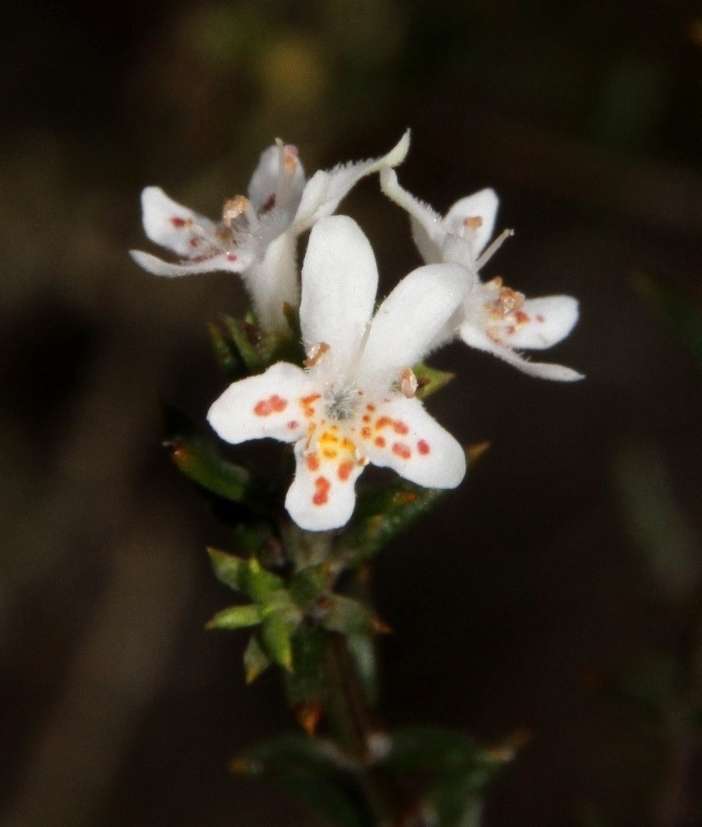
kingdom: Plantae
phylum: Tracheophyta
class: Magnoliopsida
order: Lamiales
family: Lamiaceae
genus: Westringia
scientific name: Westringia rigida
